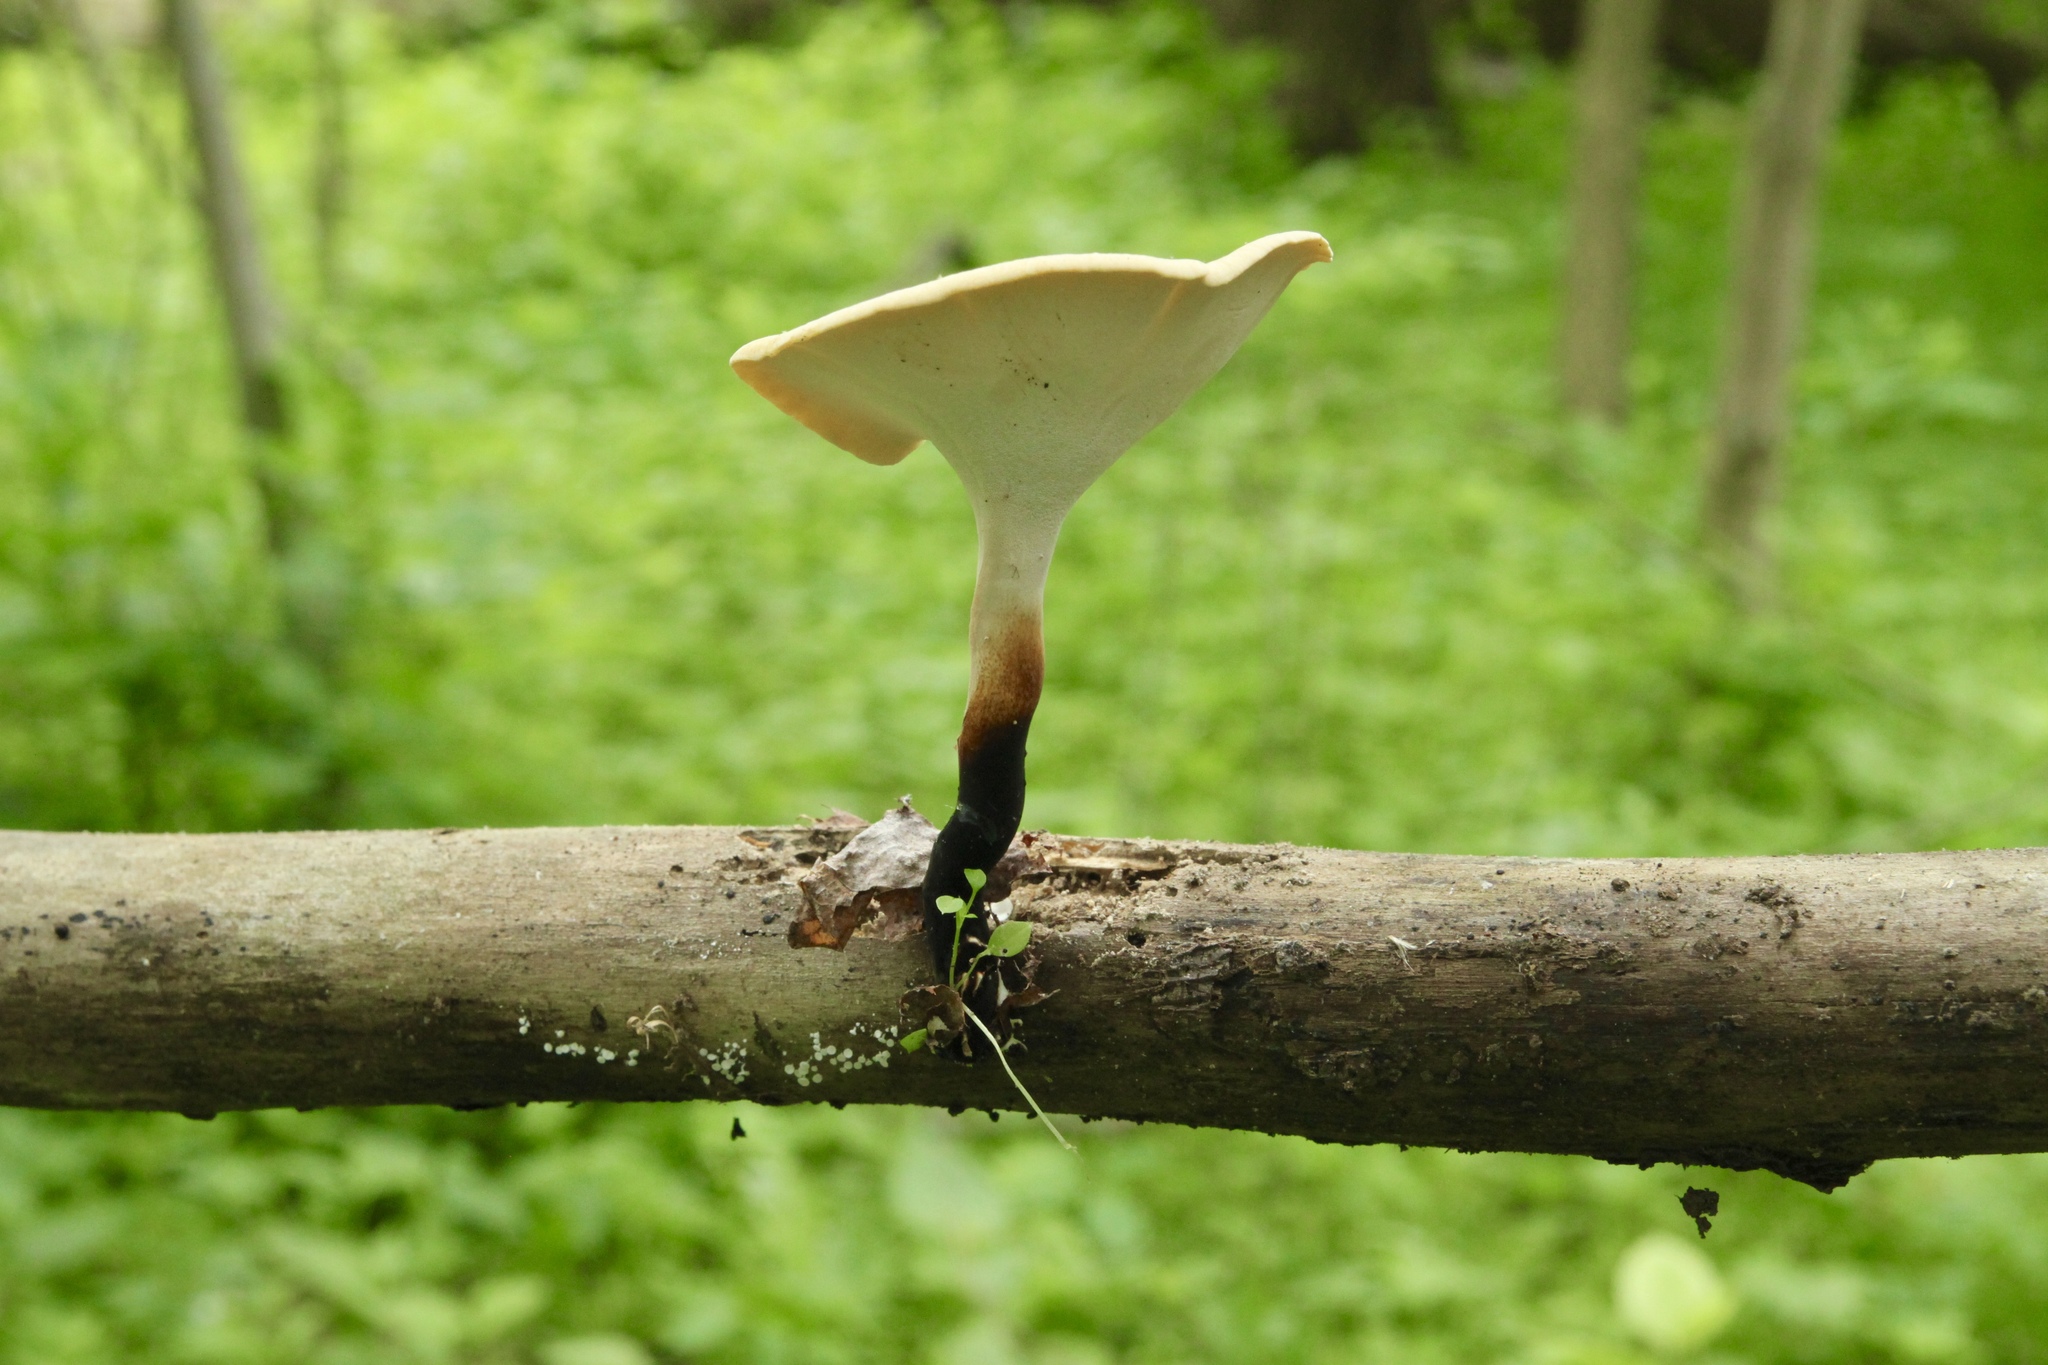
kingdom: Fungi
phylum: Basidiomycota
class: Agaricomycetes
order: Polyporales
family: Polyporaceae
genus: Cerioporus
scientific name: Cerioporus varius
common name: Elegant polypore
